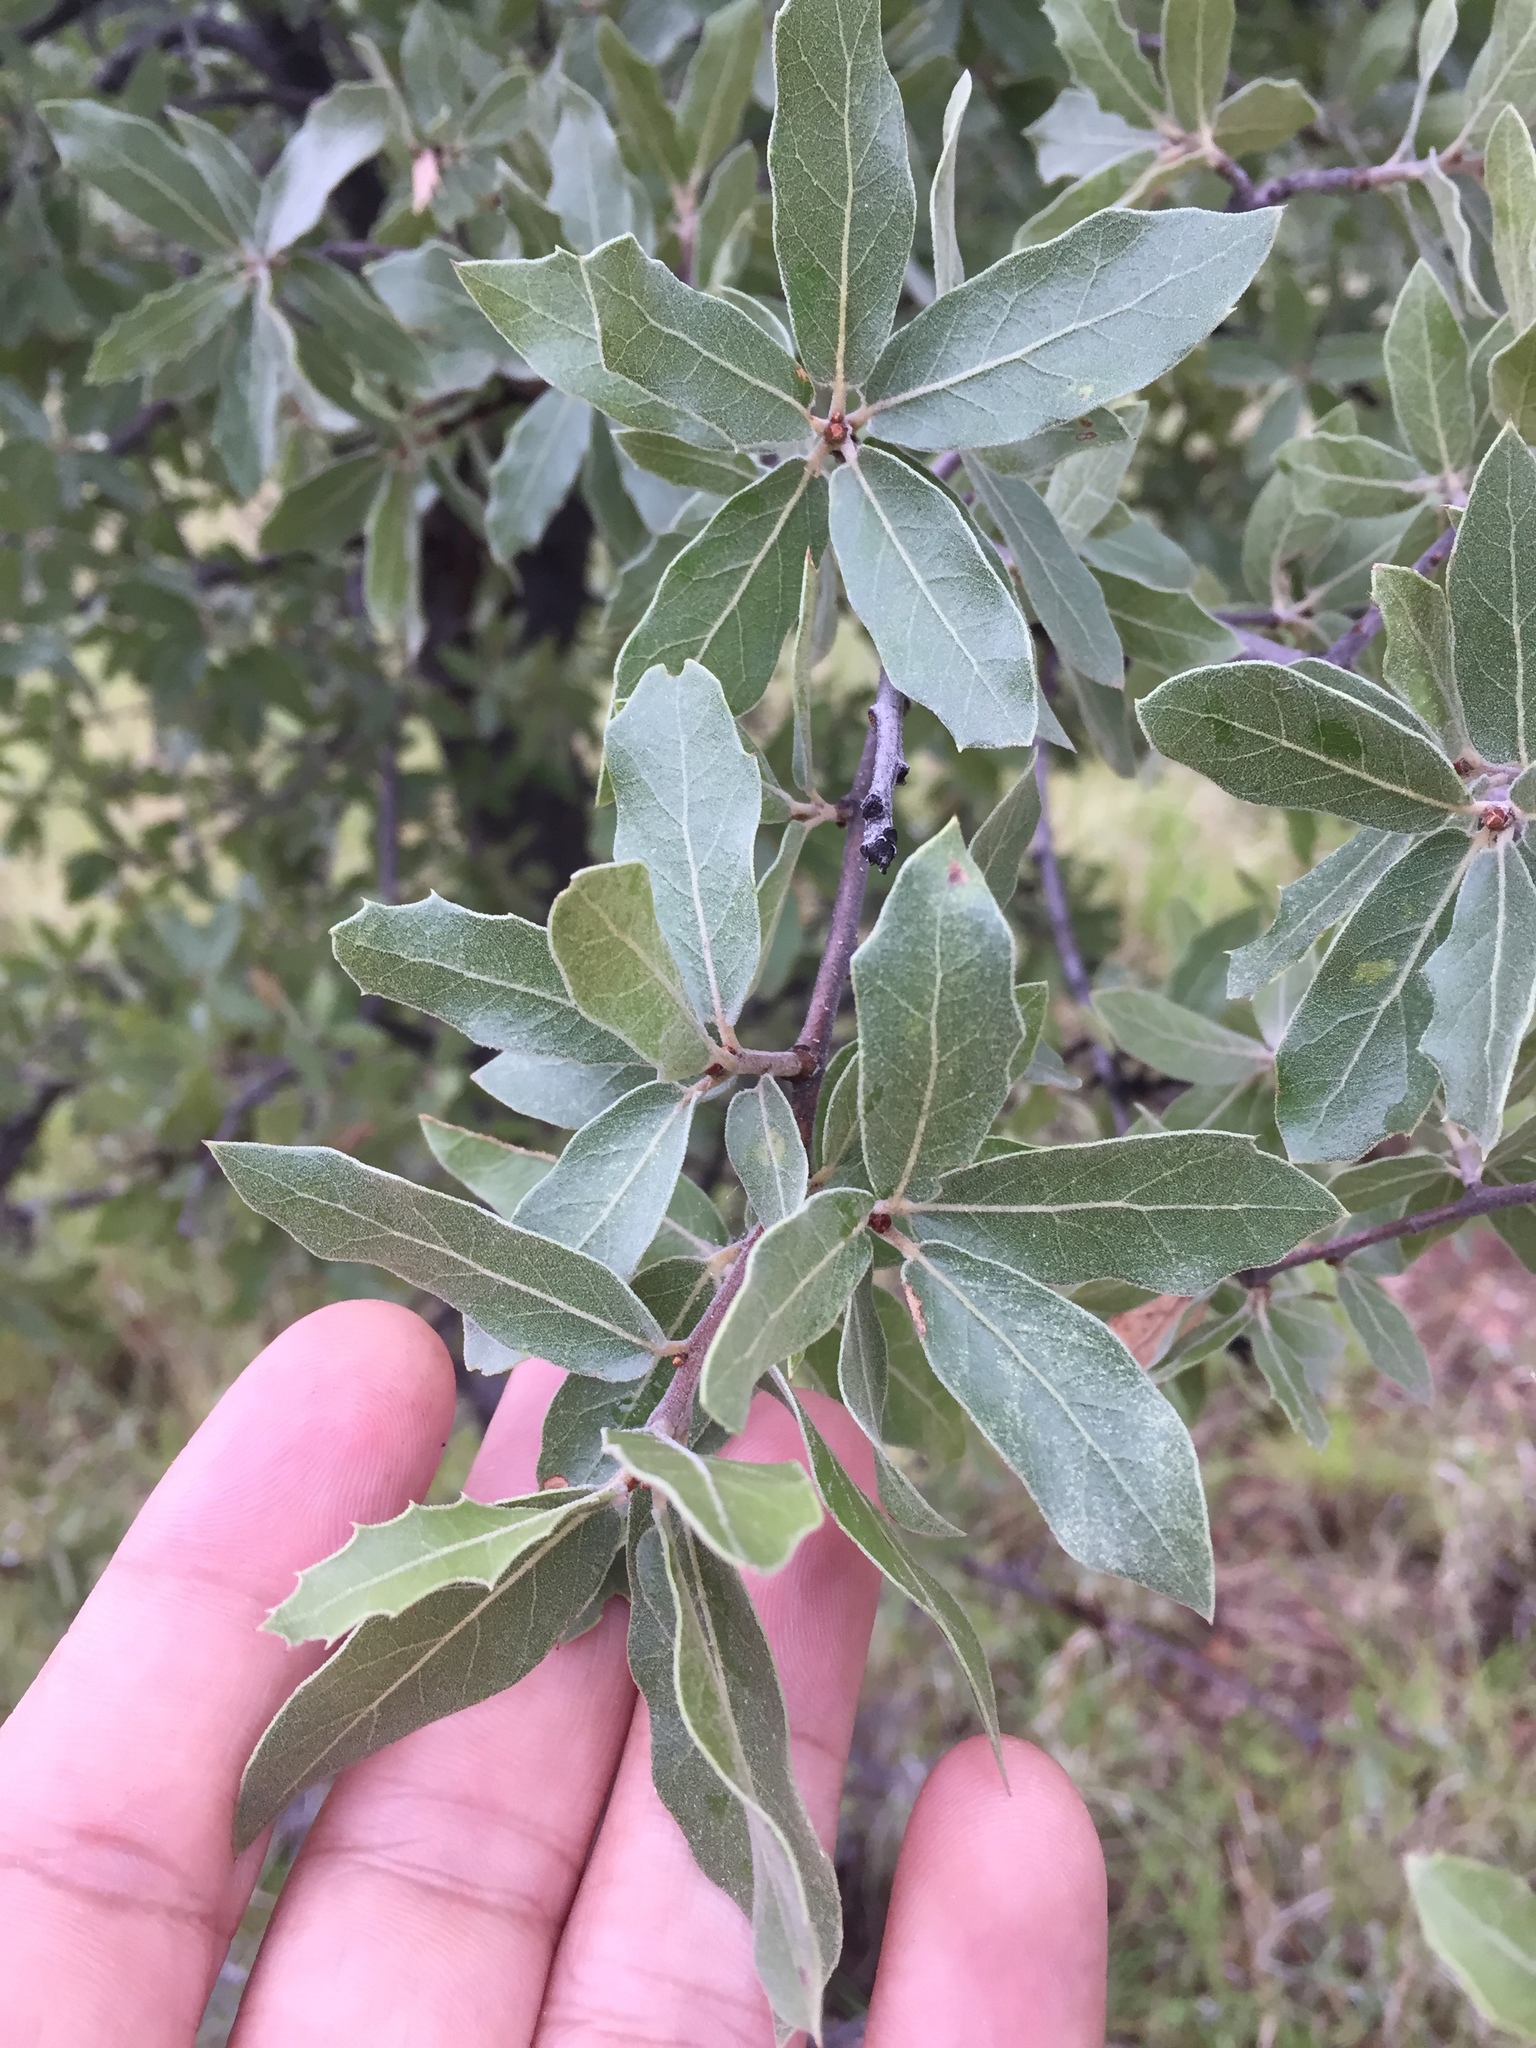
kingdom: Plantae
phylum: Tracheophyta
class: Magnoliopsida
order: Fagales
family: Fagaceae
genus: Quercus
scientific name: Quercus emoryi
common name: Emory oak
